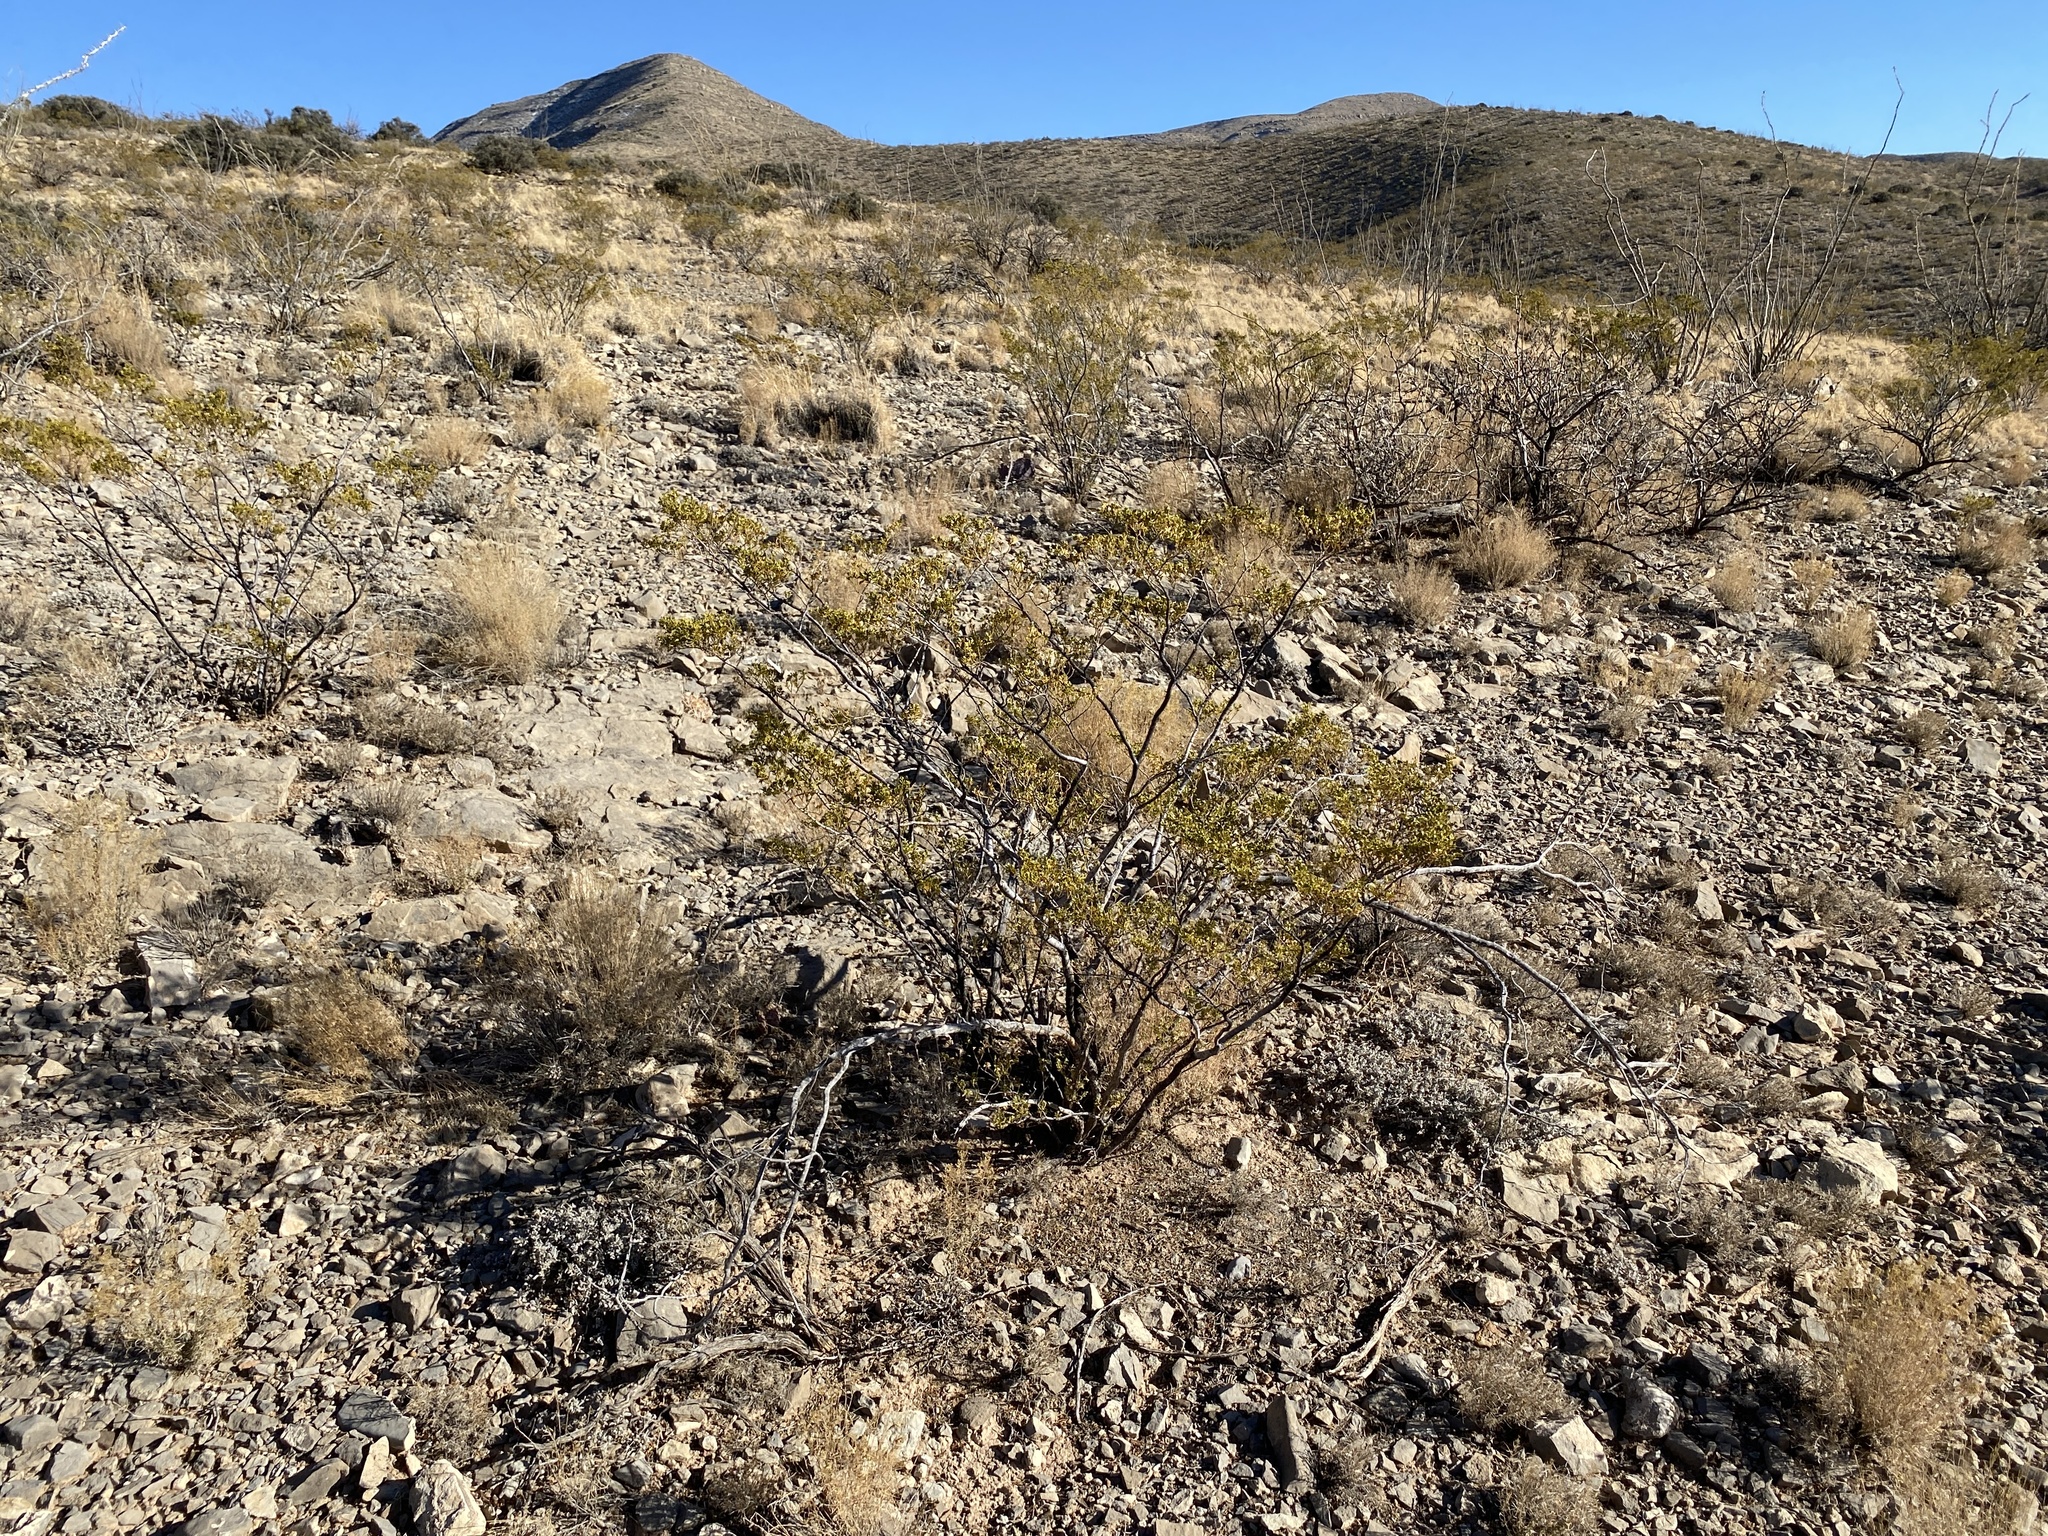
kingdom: Plantae
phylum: Tracheophyta
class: Magnoliopsida
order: Zygophyllales
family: Zygophyllaceae
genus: Larrea
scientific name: Larrea tridentata
